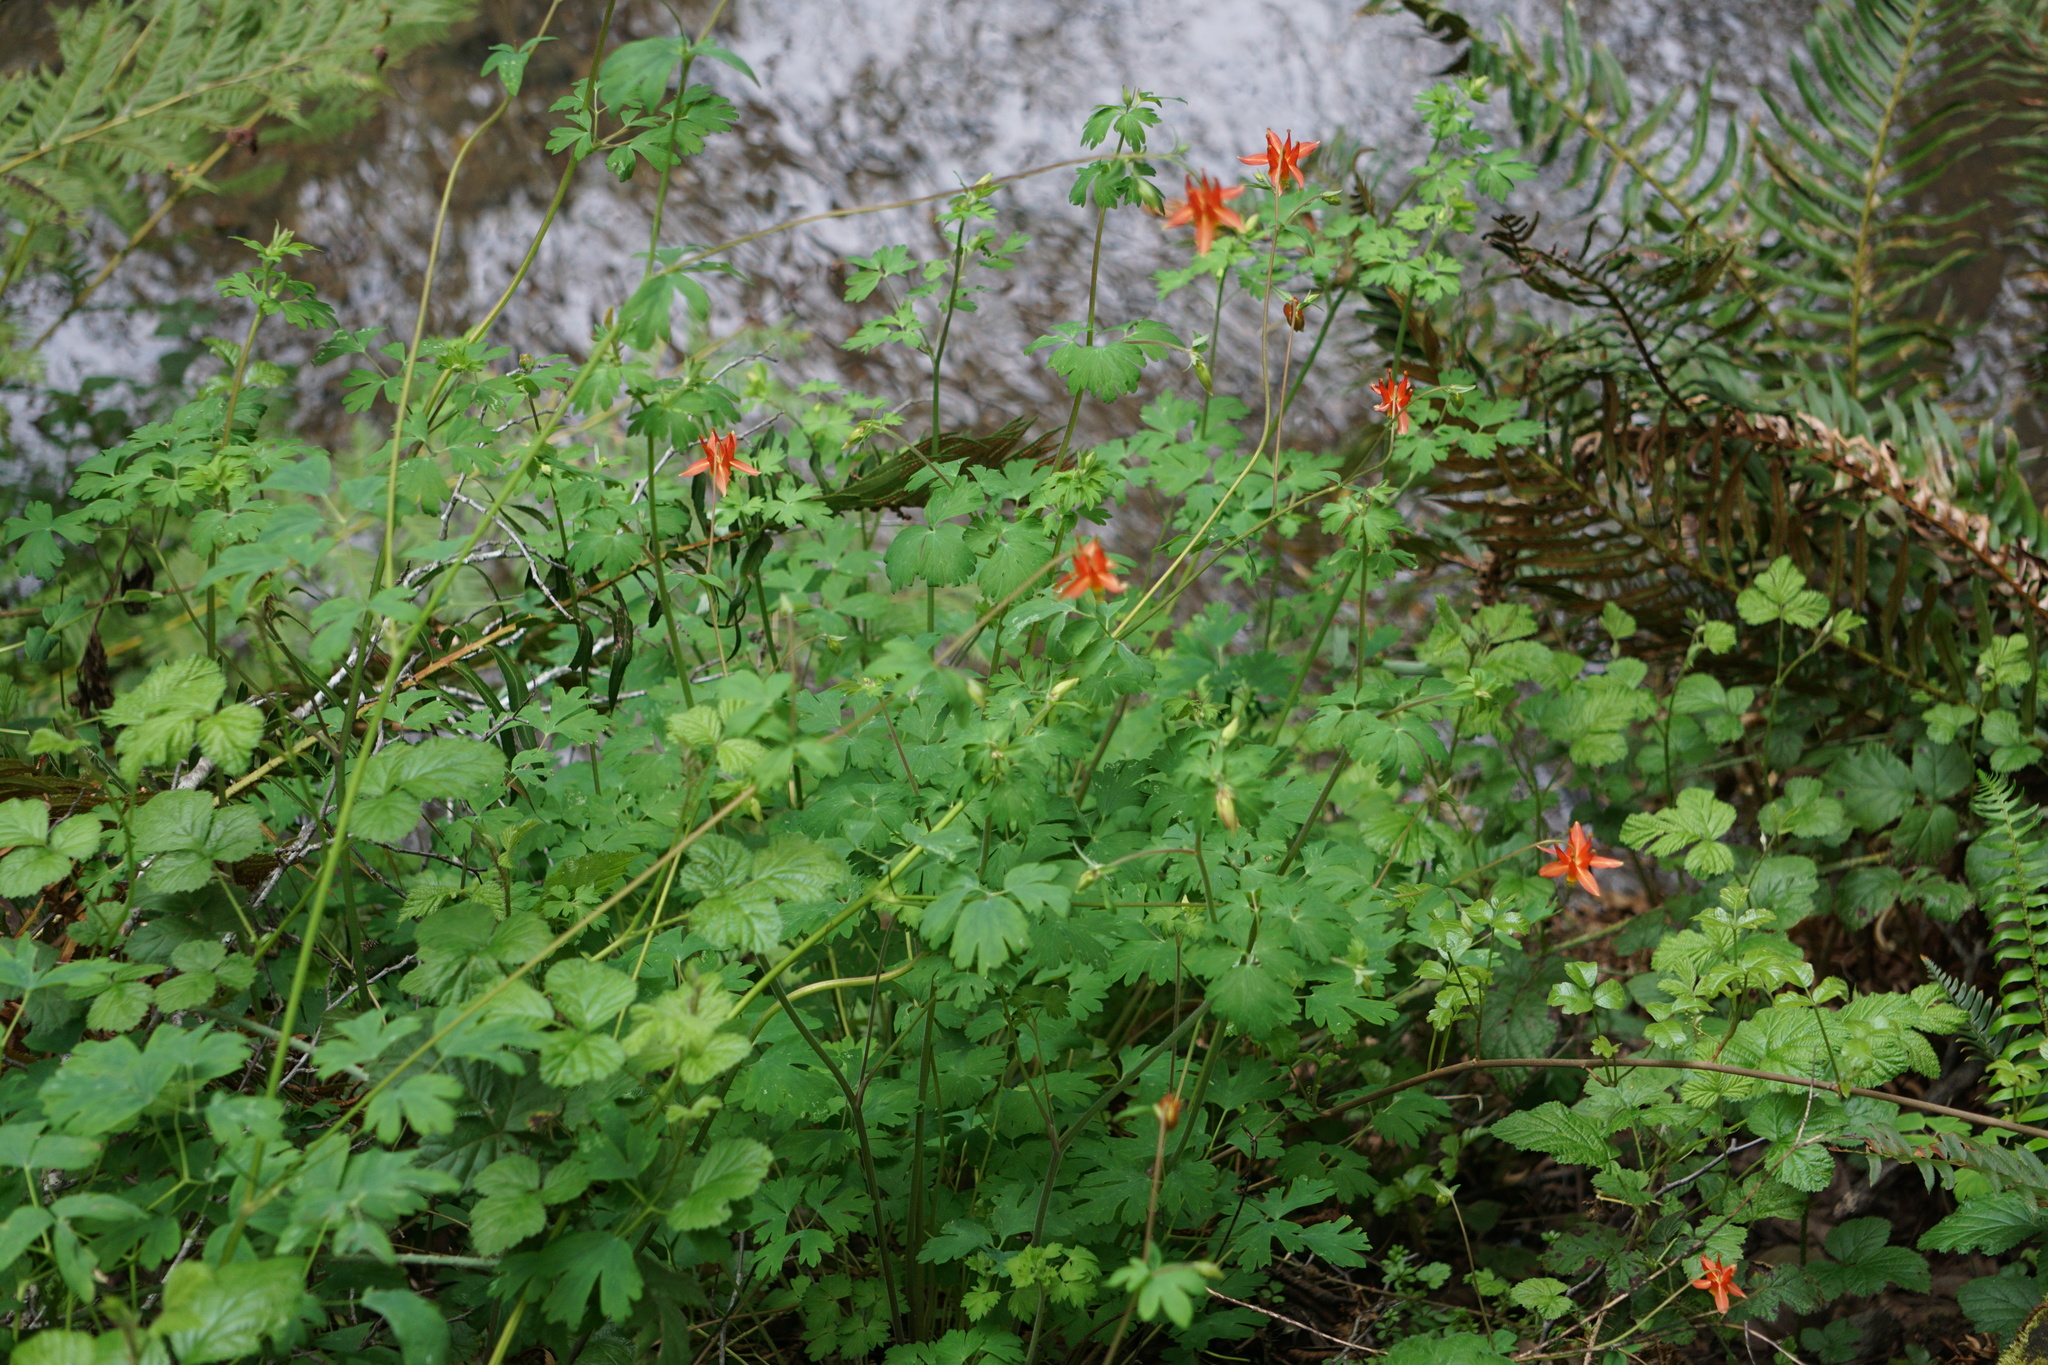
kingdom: Plantae
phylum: Tracheophyta
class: Magnoliopsida
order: Ranunculales
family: Ranunculaceae
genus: Aquilegia
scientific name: Aquilegia formosa
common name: Sitka columbine
